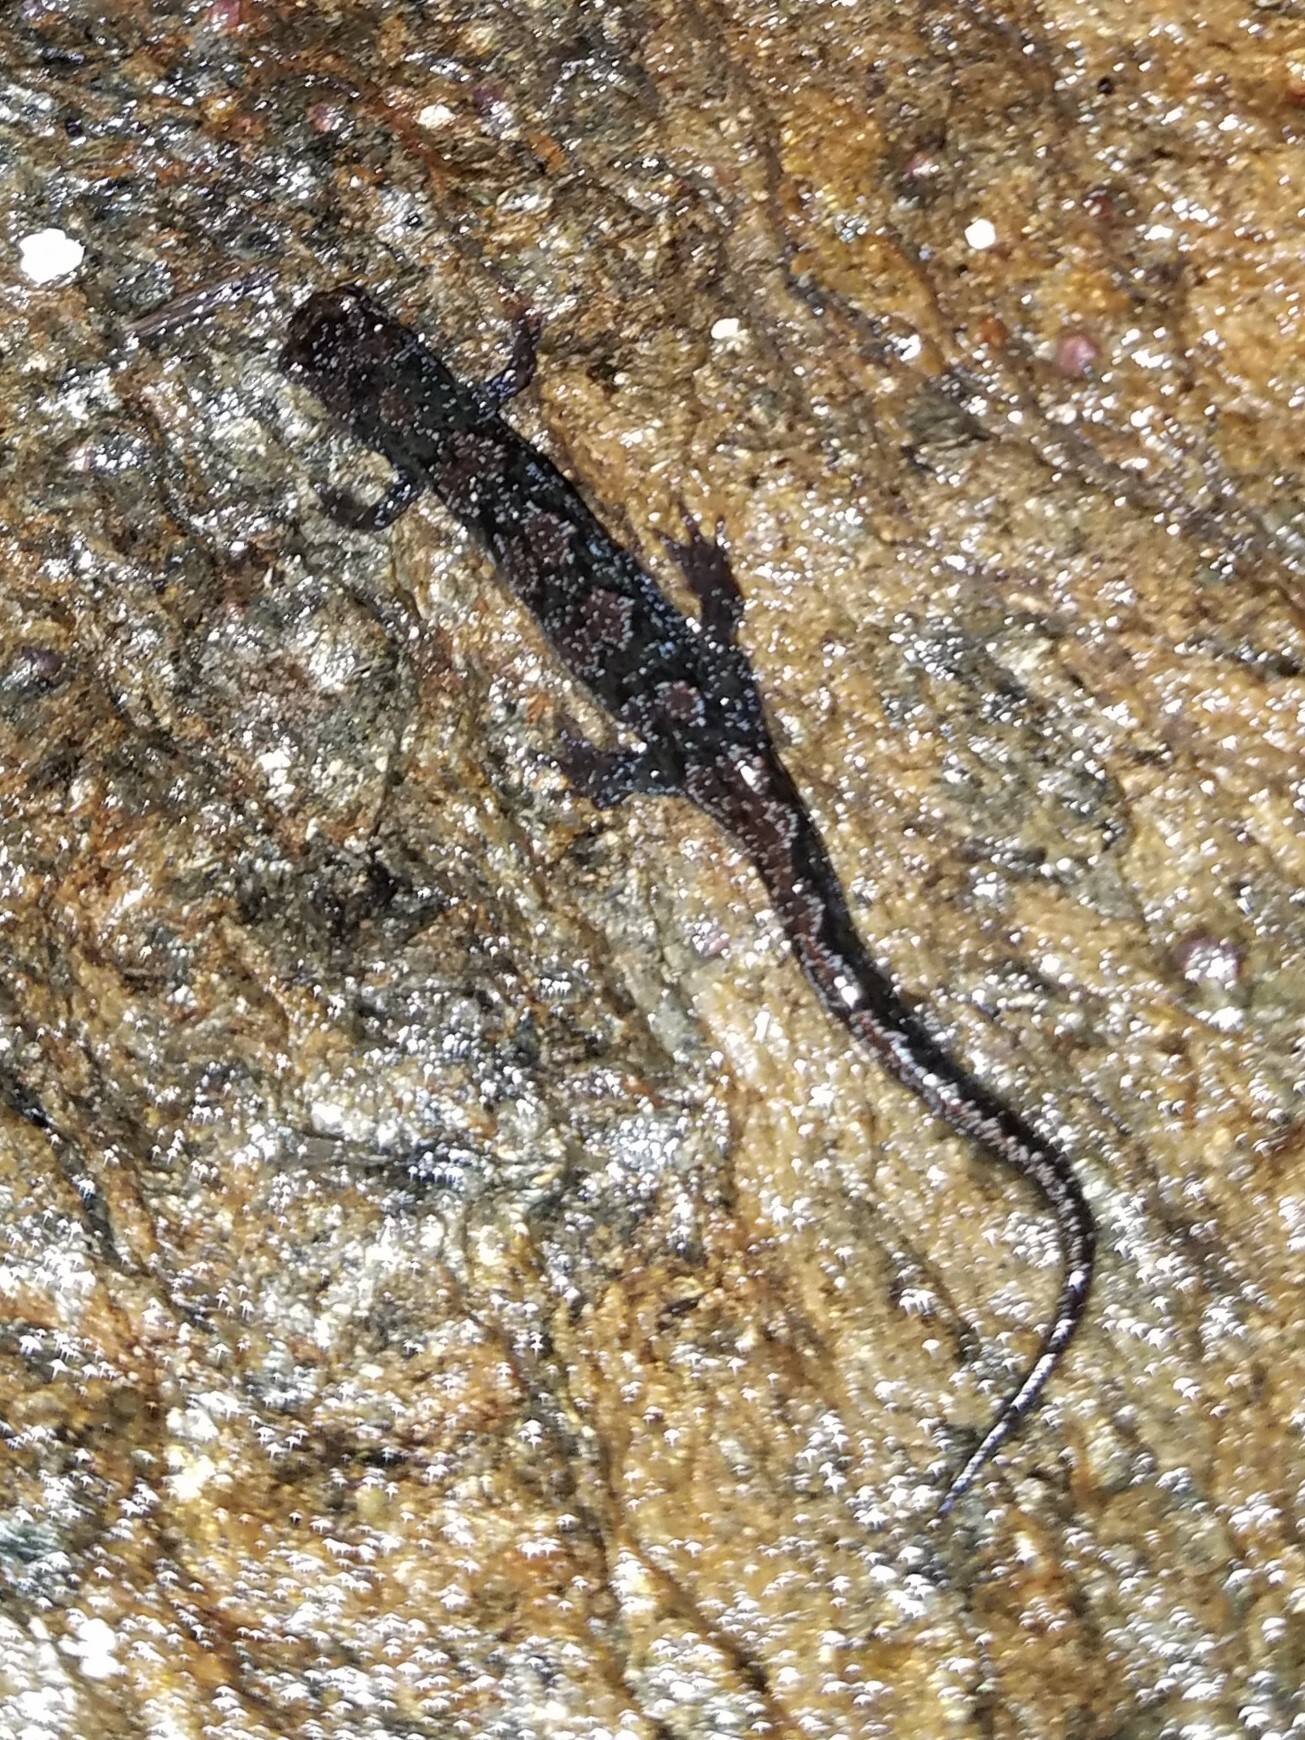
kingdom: Animalia
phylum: Chordata
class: Amphibia
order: Caudata
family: Plethodontidae
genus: Desmognathus
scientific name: Desmognathus ocoee
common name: Ocoee salamander
